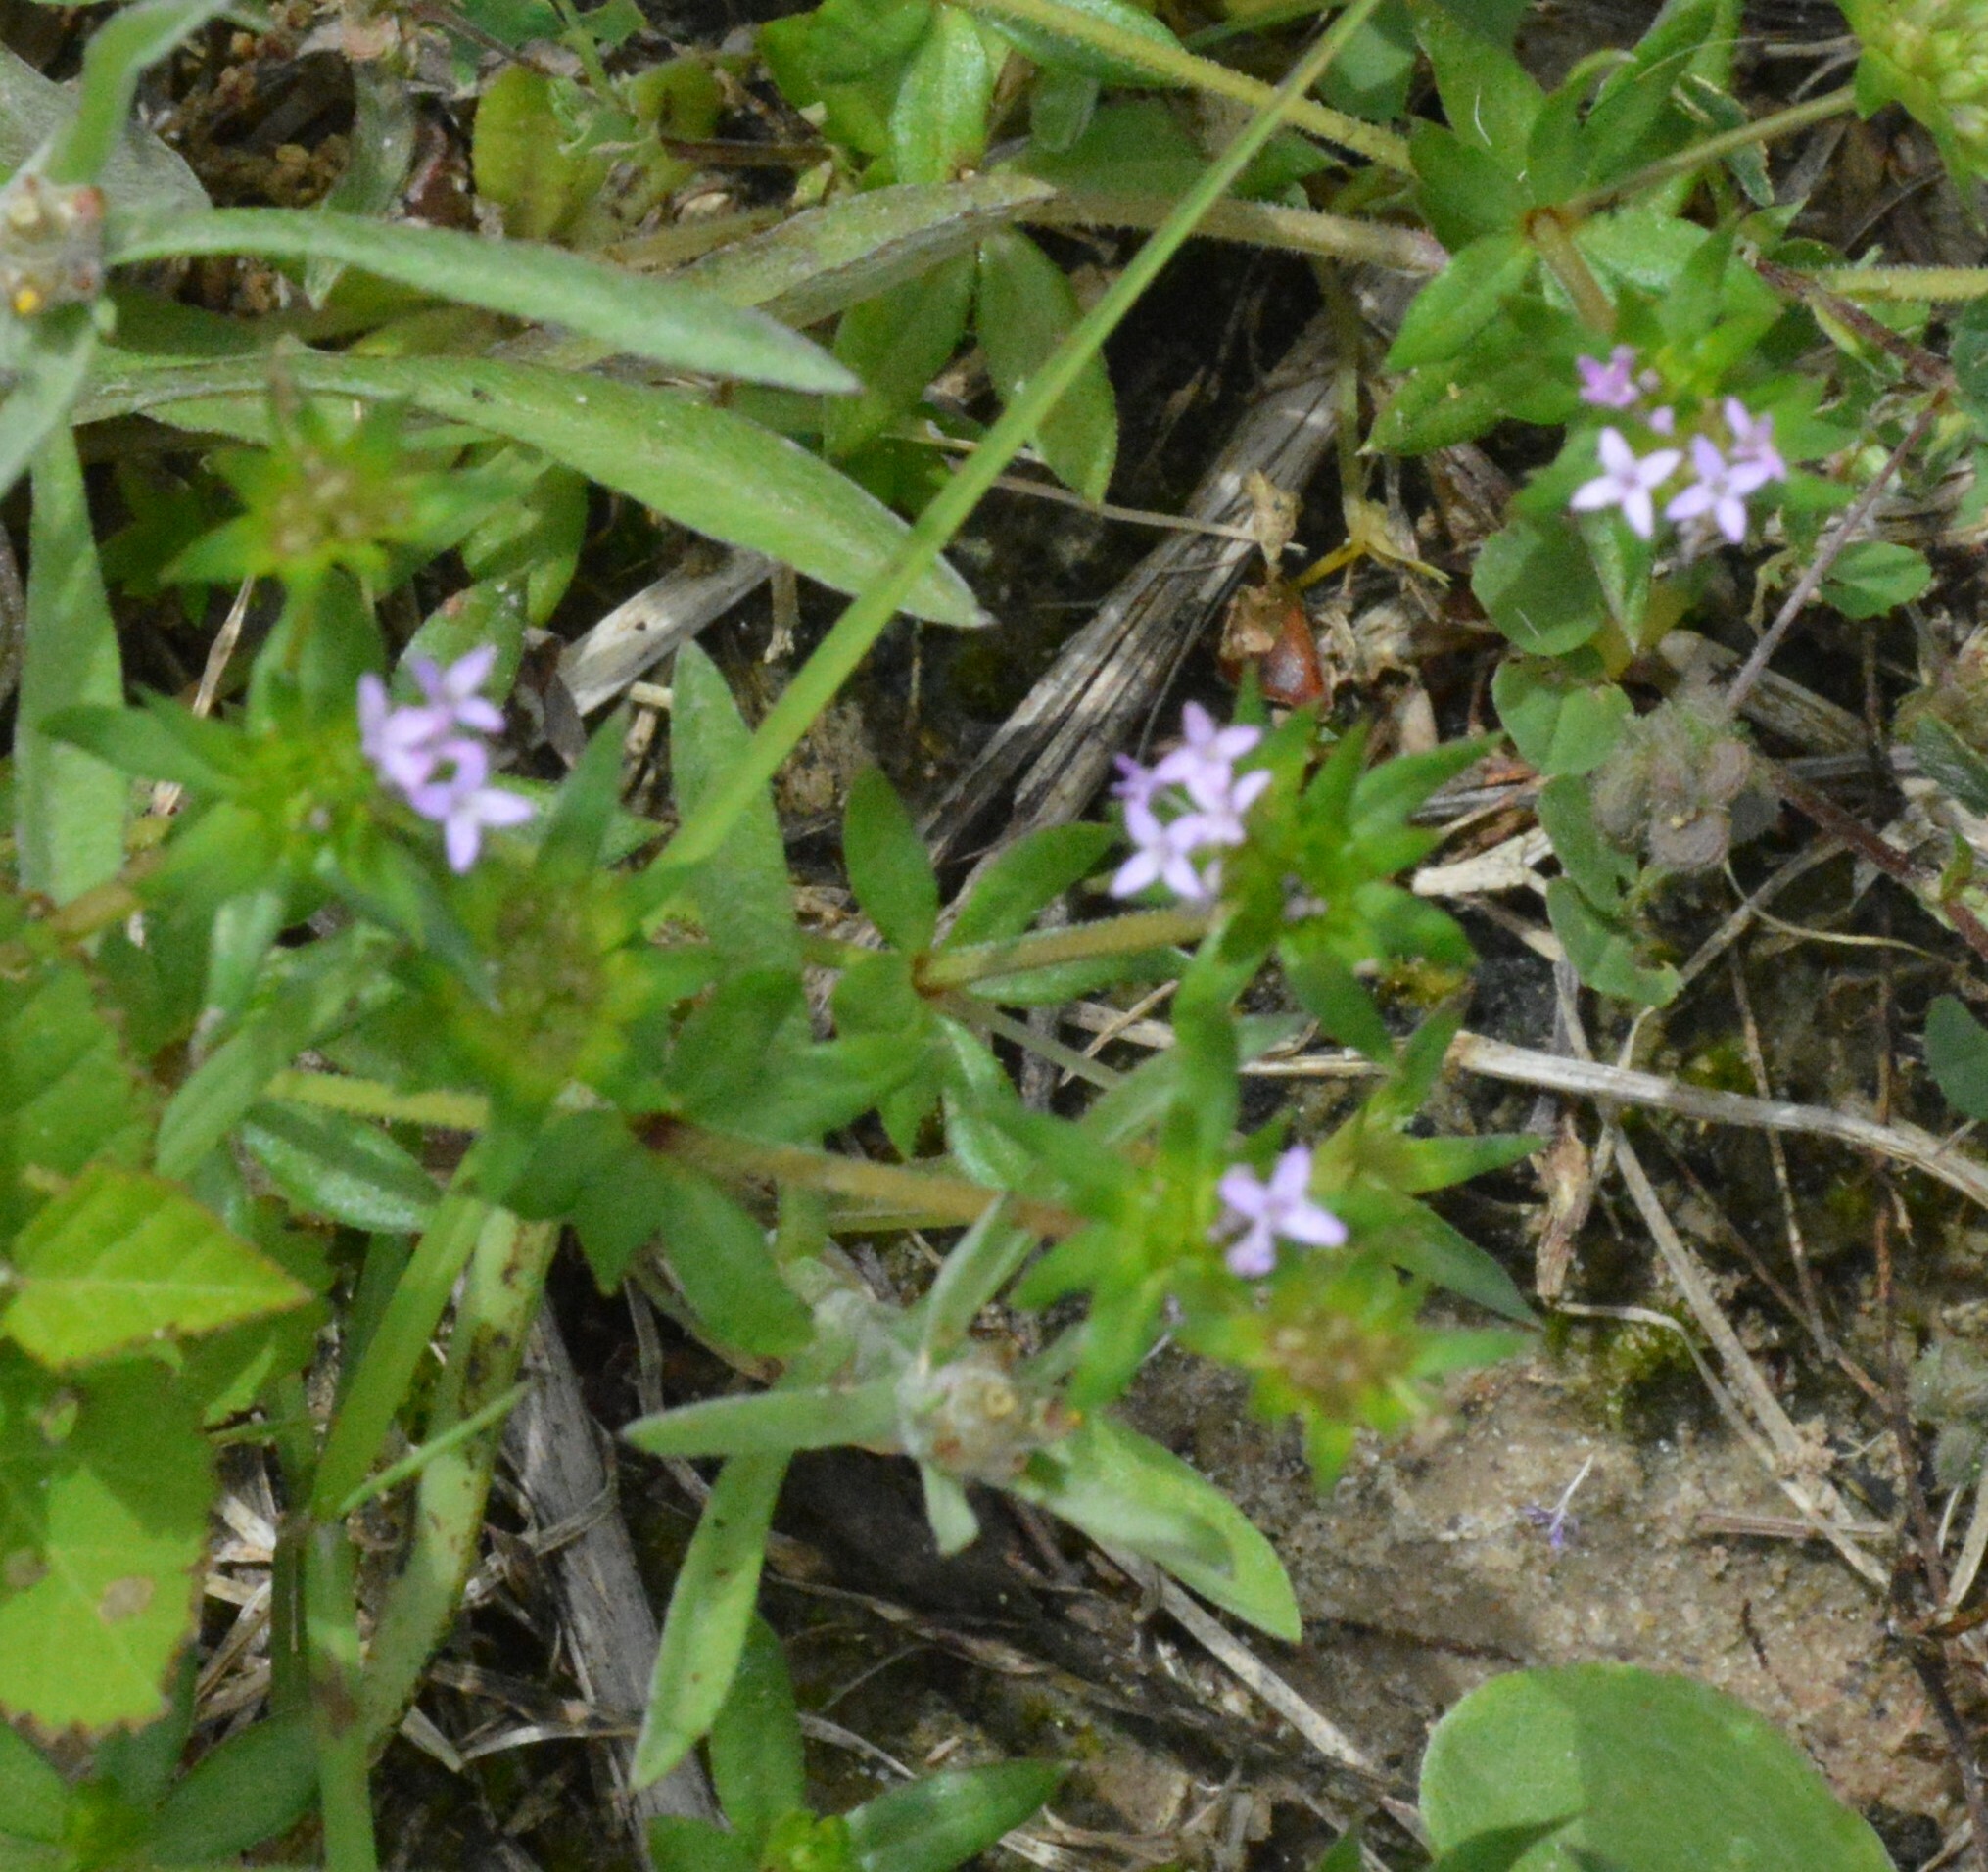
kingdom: Plantae
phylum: Tracheophyta
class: Magnoliopsida
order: Gentianales
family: Rubiaceae
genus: Sherardia
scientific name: Sherardia arvensis
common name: Field madder
